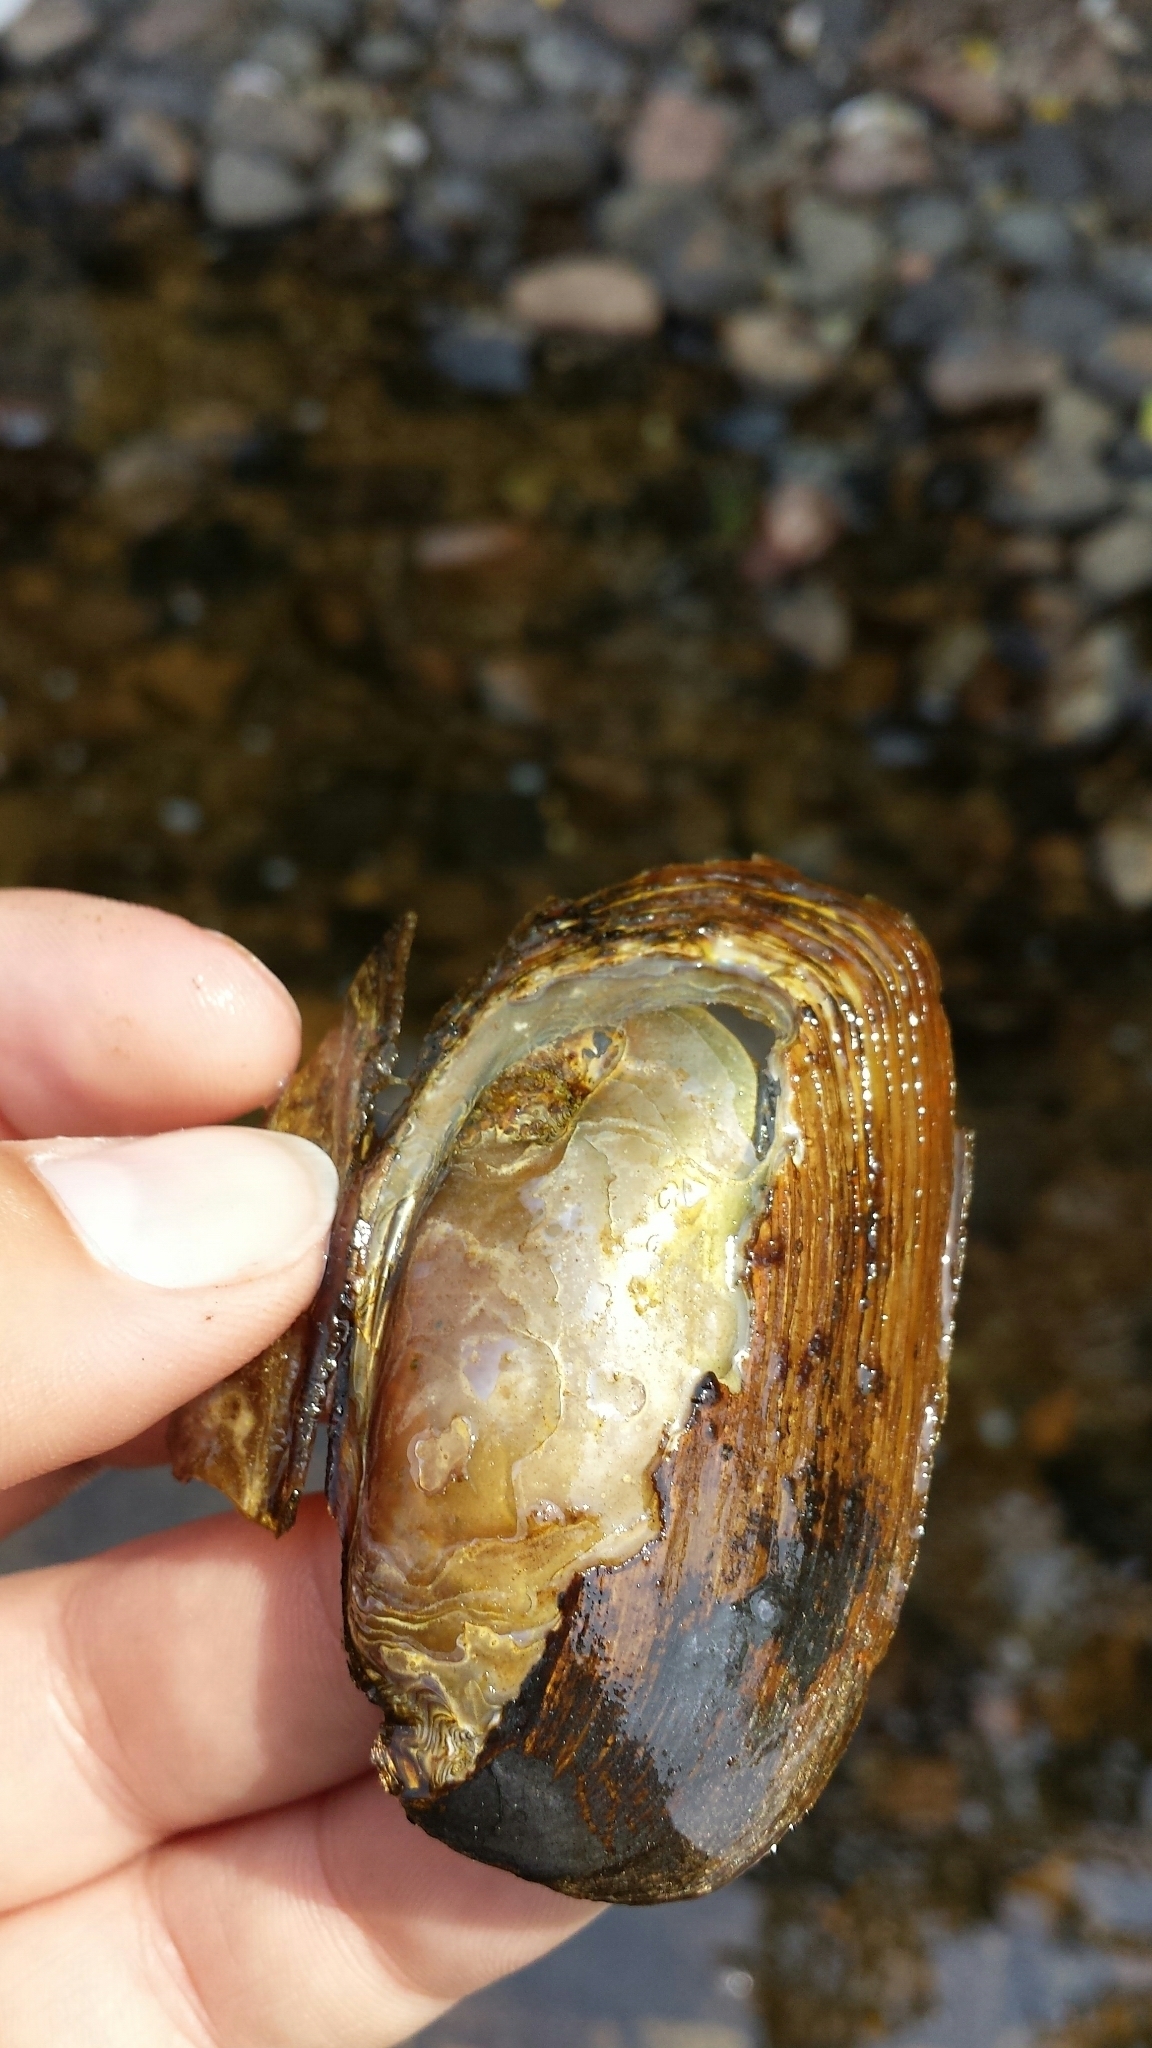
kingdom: Animalia
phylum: Mollusca
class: Bivalvia
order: Unionida
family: Unionidae
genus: Elliptio
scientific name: Elliptio complanata
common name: Eastern elliptio
